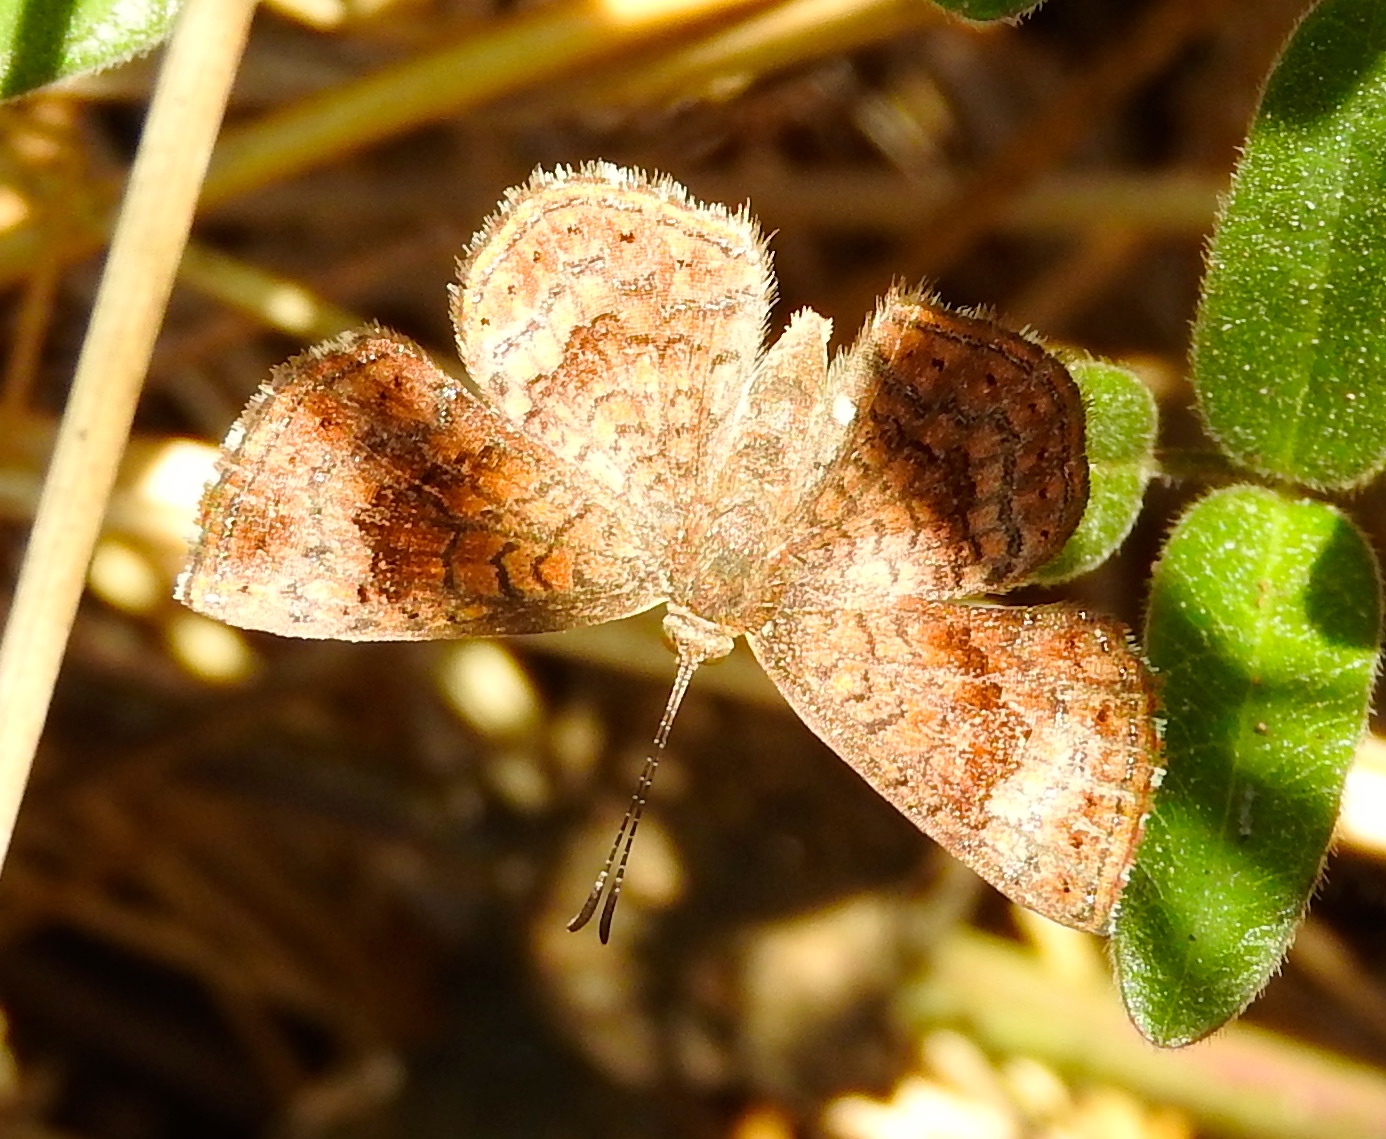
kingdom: Animalia
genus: Calephelis
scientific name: Calephelis
